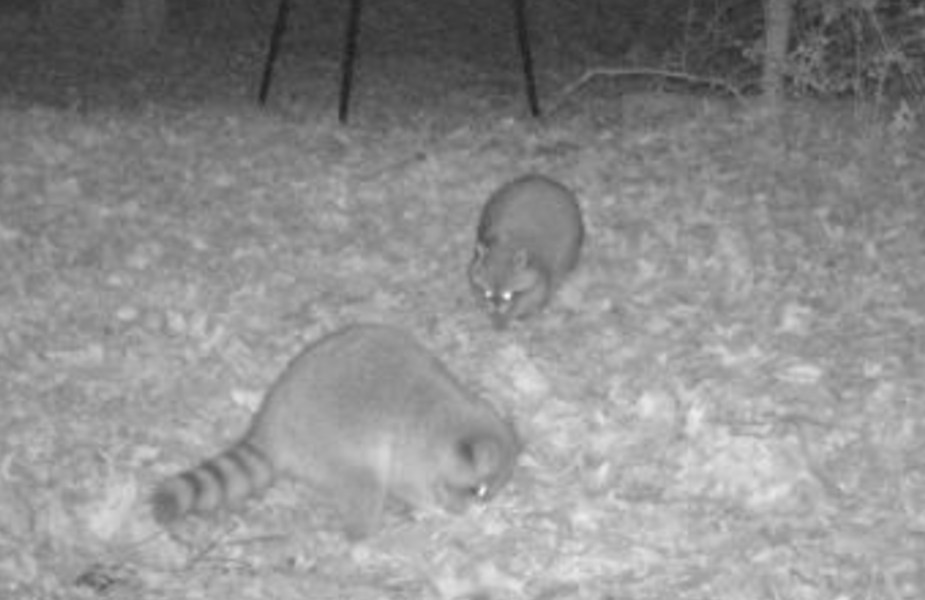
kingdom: Animalia
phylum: Chordata
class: Mammalia
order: Carnivora
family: Procyonidae
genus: Procyon
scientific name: Procyon lotor
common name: Raccoon
